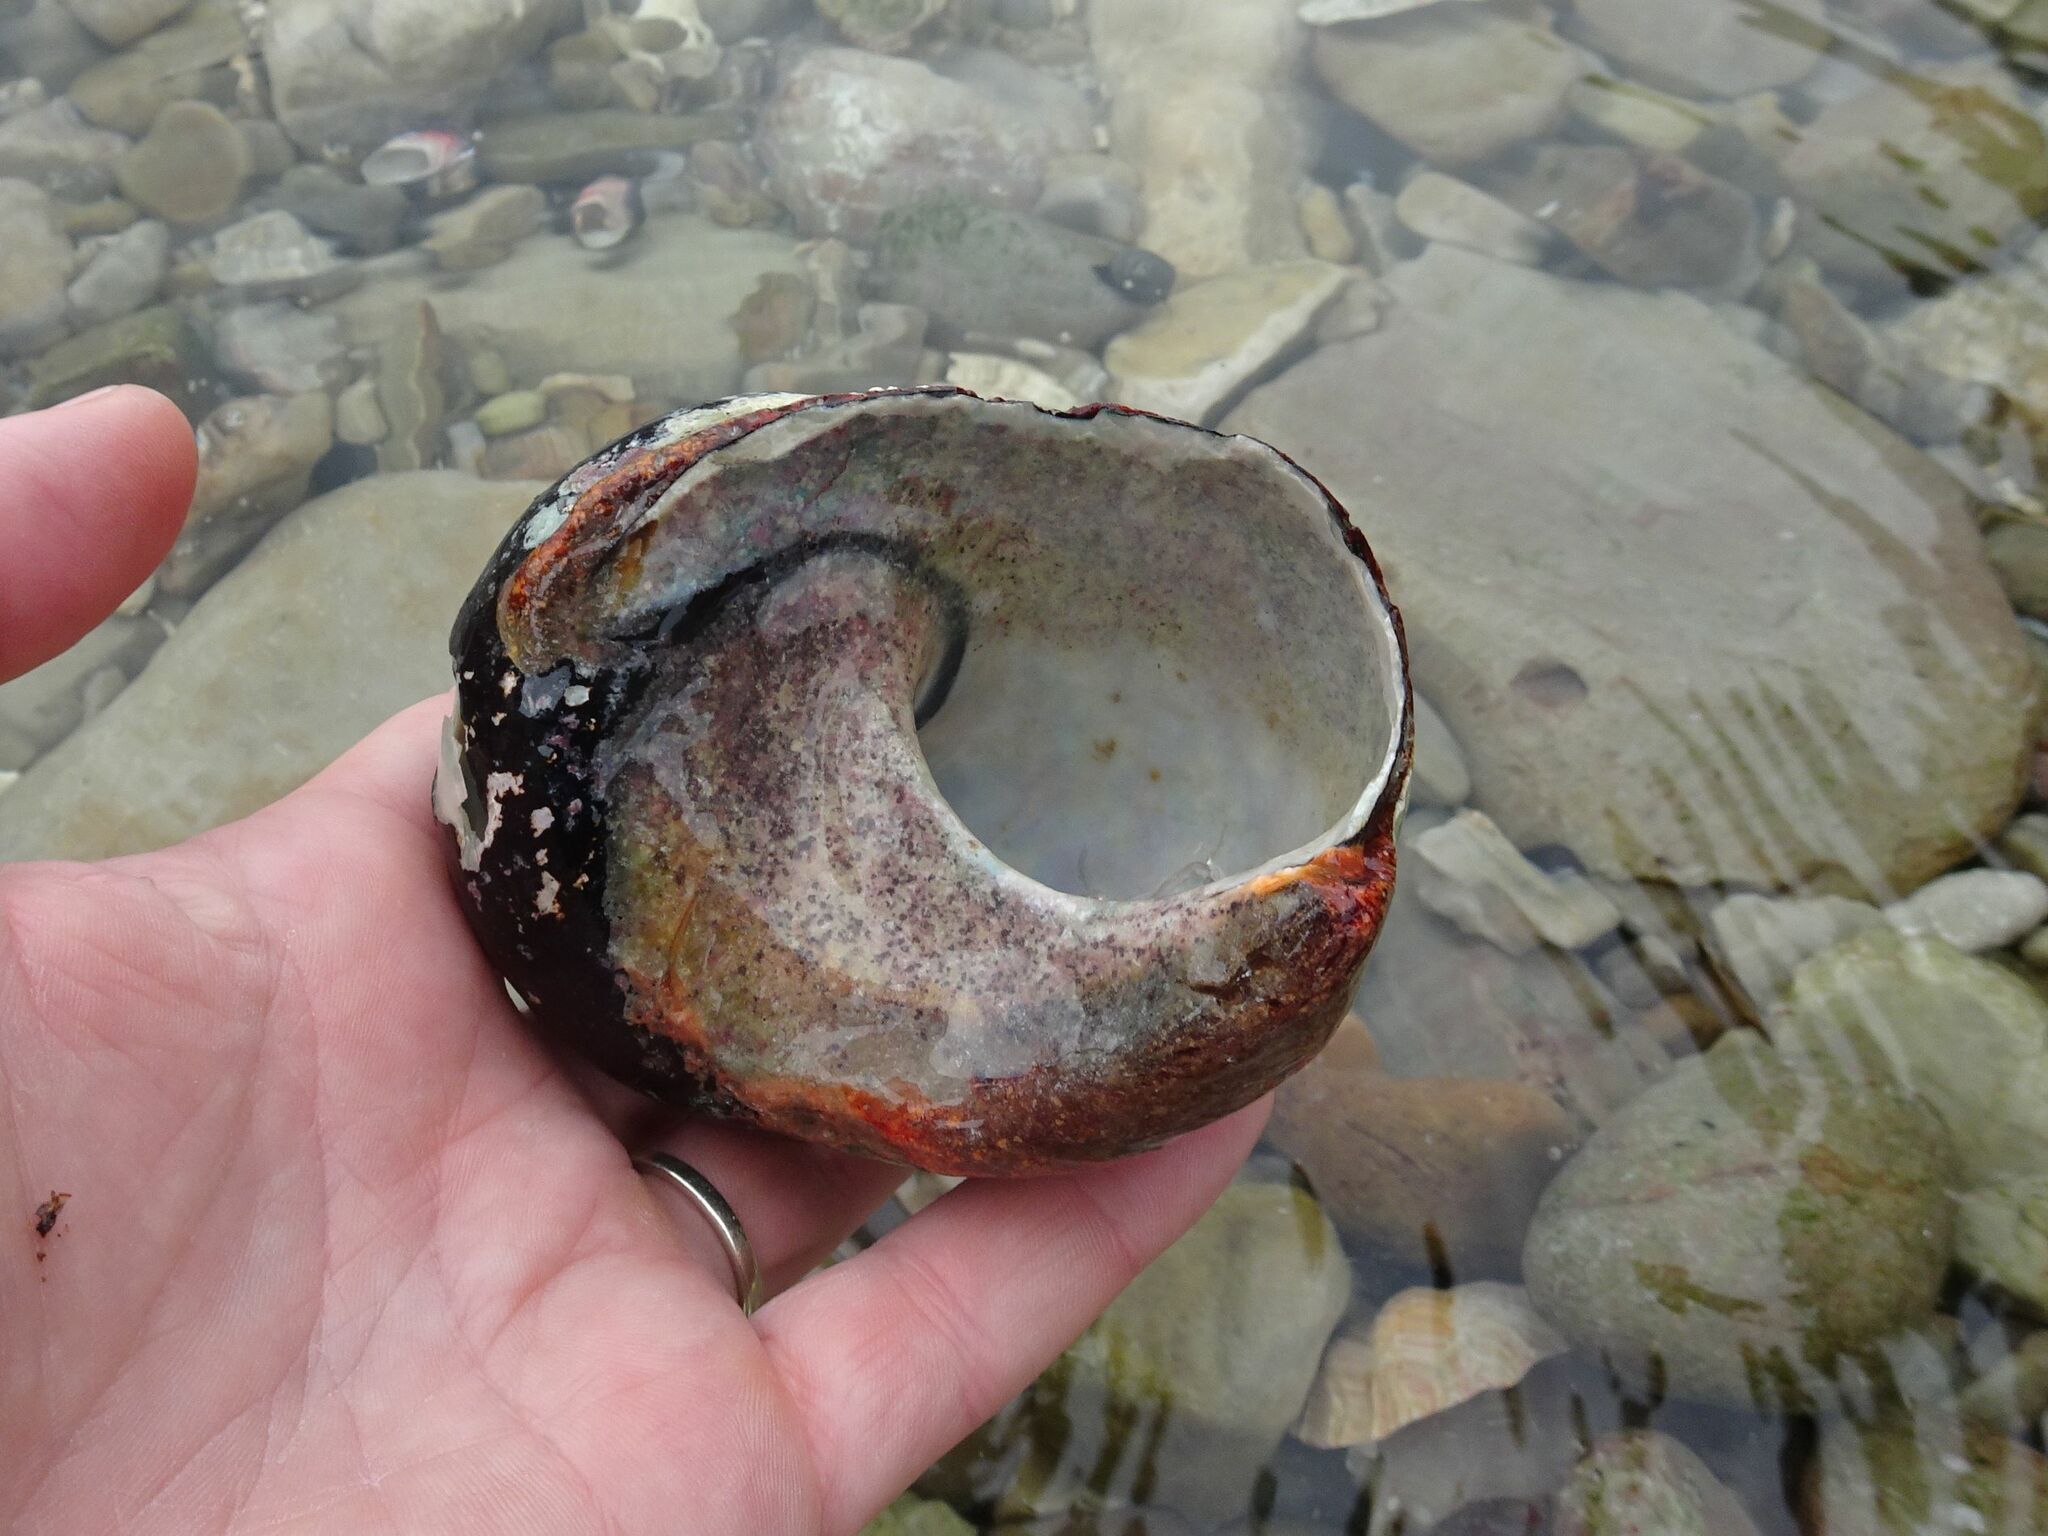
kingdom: Animalia
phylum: Mollusca
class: Gastropoda
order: Trochida
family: Turbinidae
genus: Turbo
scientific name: Turbo sarmaticus
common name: South african turban
